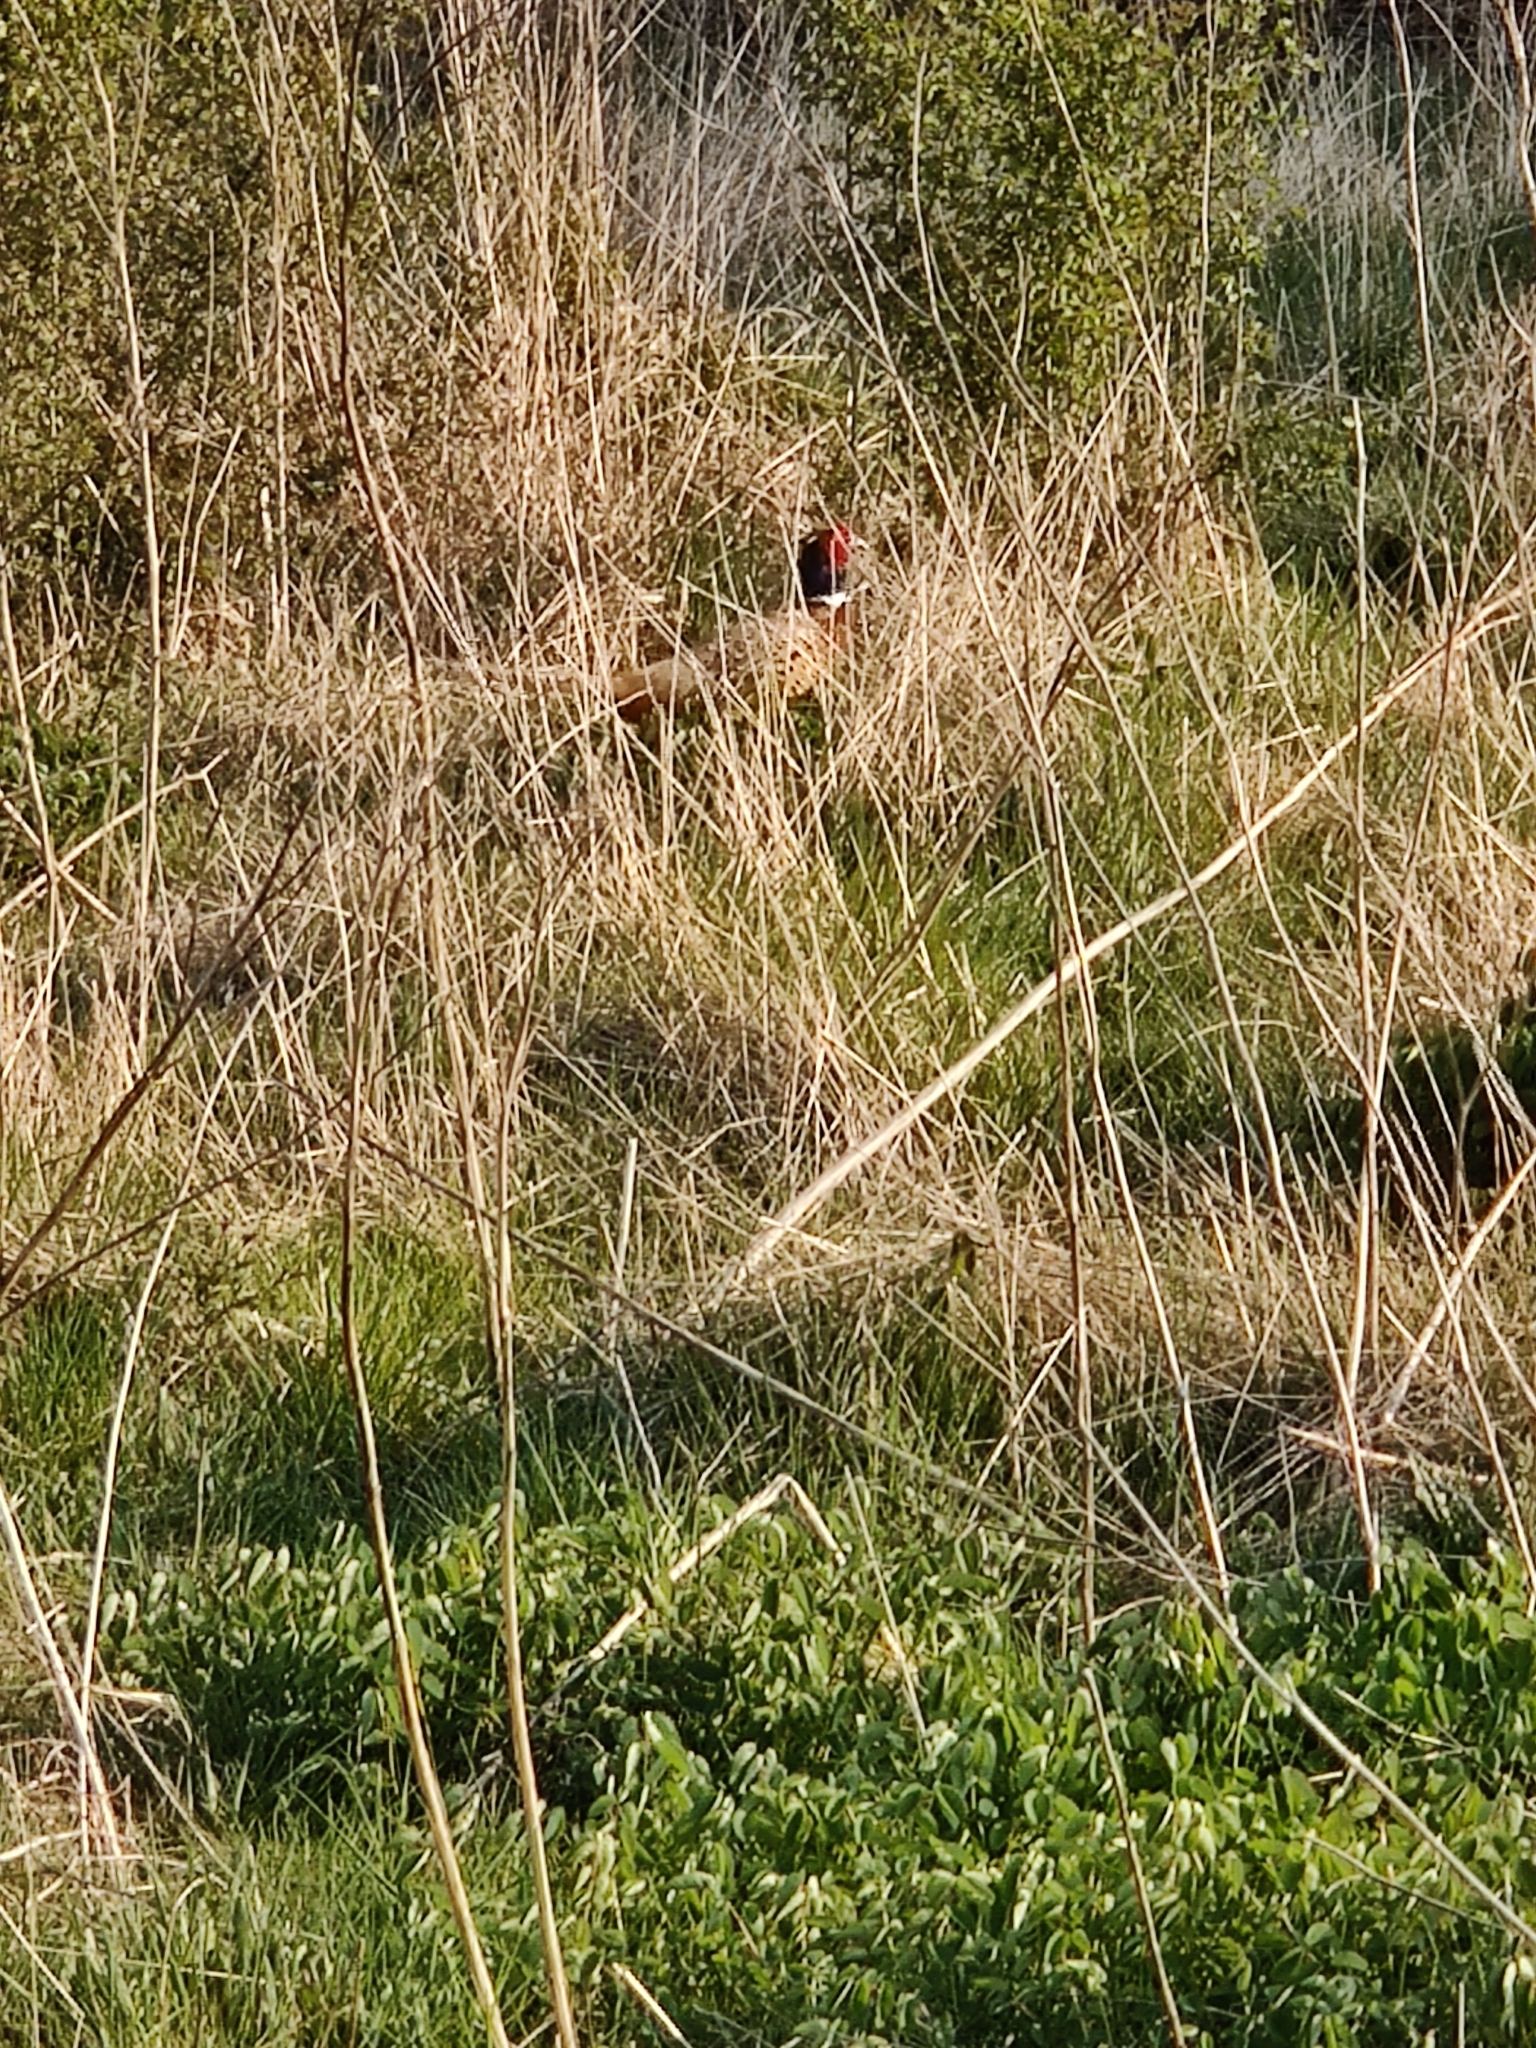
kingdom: Animalia
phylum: Chordata
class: Aves
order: Galliformes
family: Phasianidae
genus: Phasianus
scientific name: Phasianus colchicus
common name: Common pheasant
